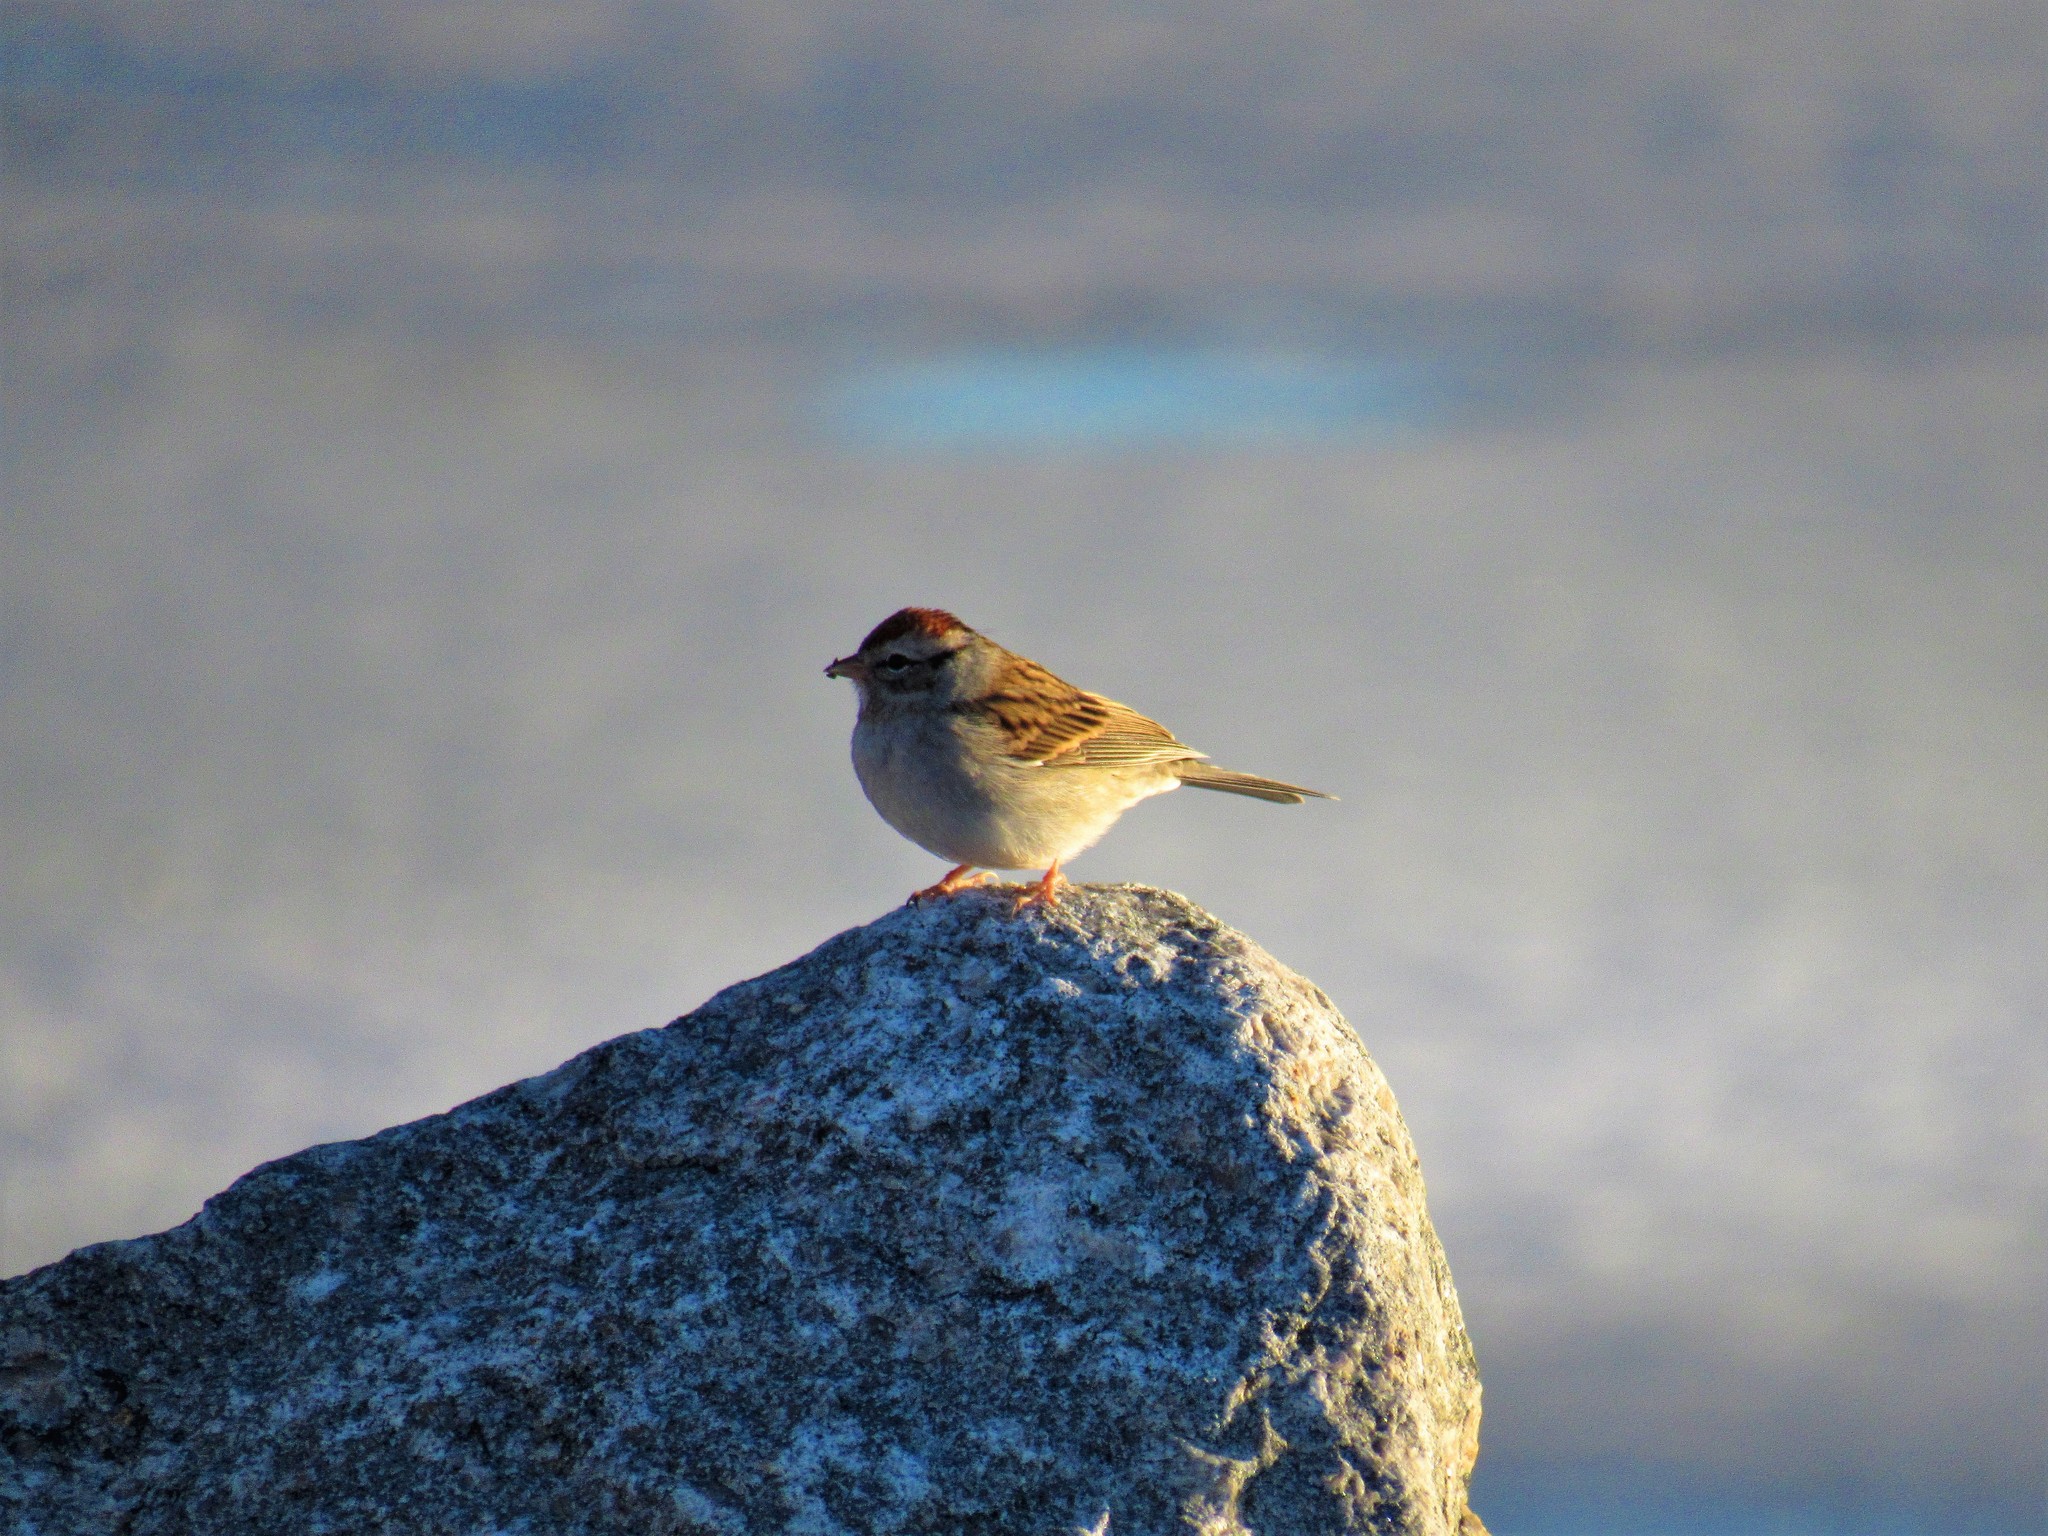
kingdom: Animalia
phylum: Chordata
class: Aves
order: Passeriformes
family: Passerellidae
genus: Spizella
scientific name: Spizella passerina
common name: Chipping sparrow
